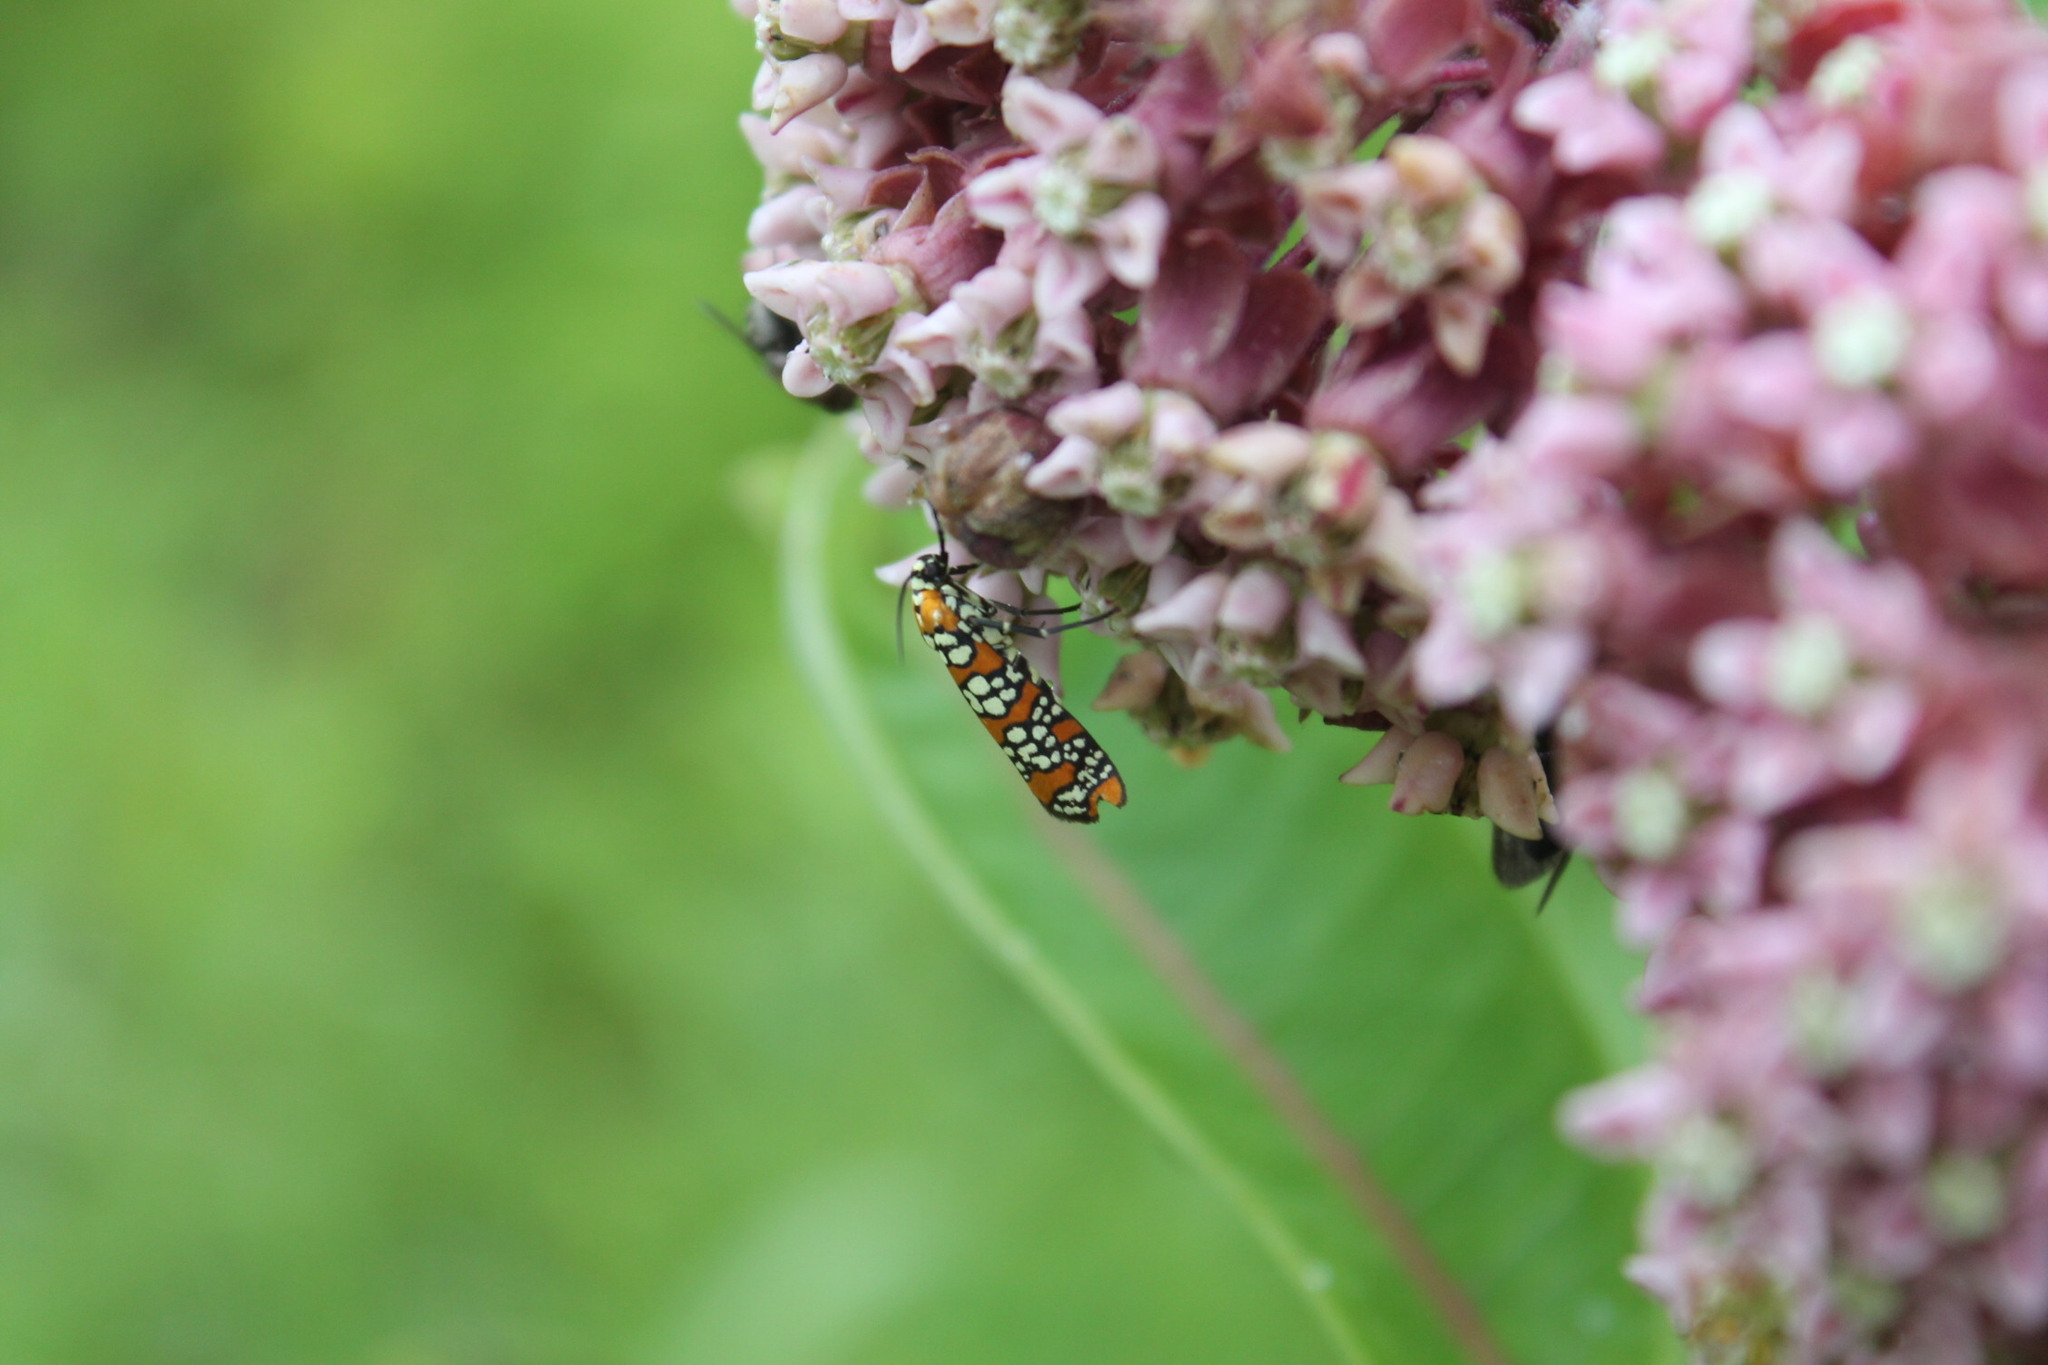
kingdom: Animalia
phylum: Arthropoda
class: Insecta
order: Lepidoptera
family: Attevidae
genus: Atteva
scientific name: Atteva punctella
